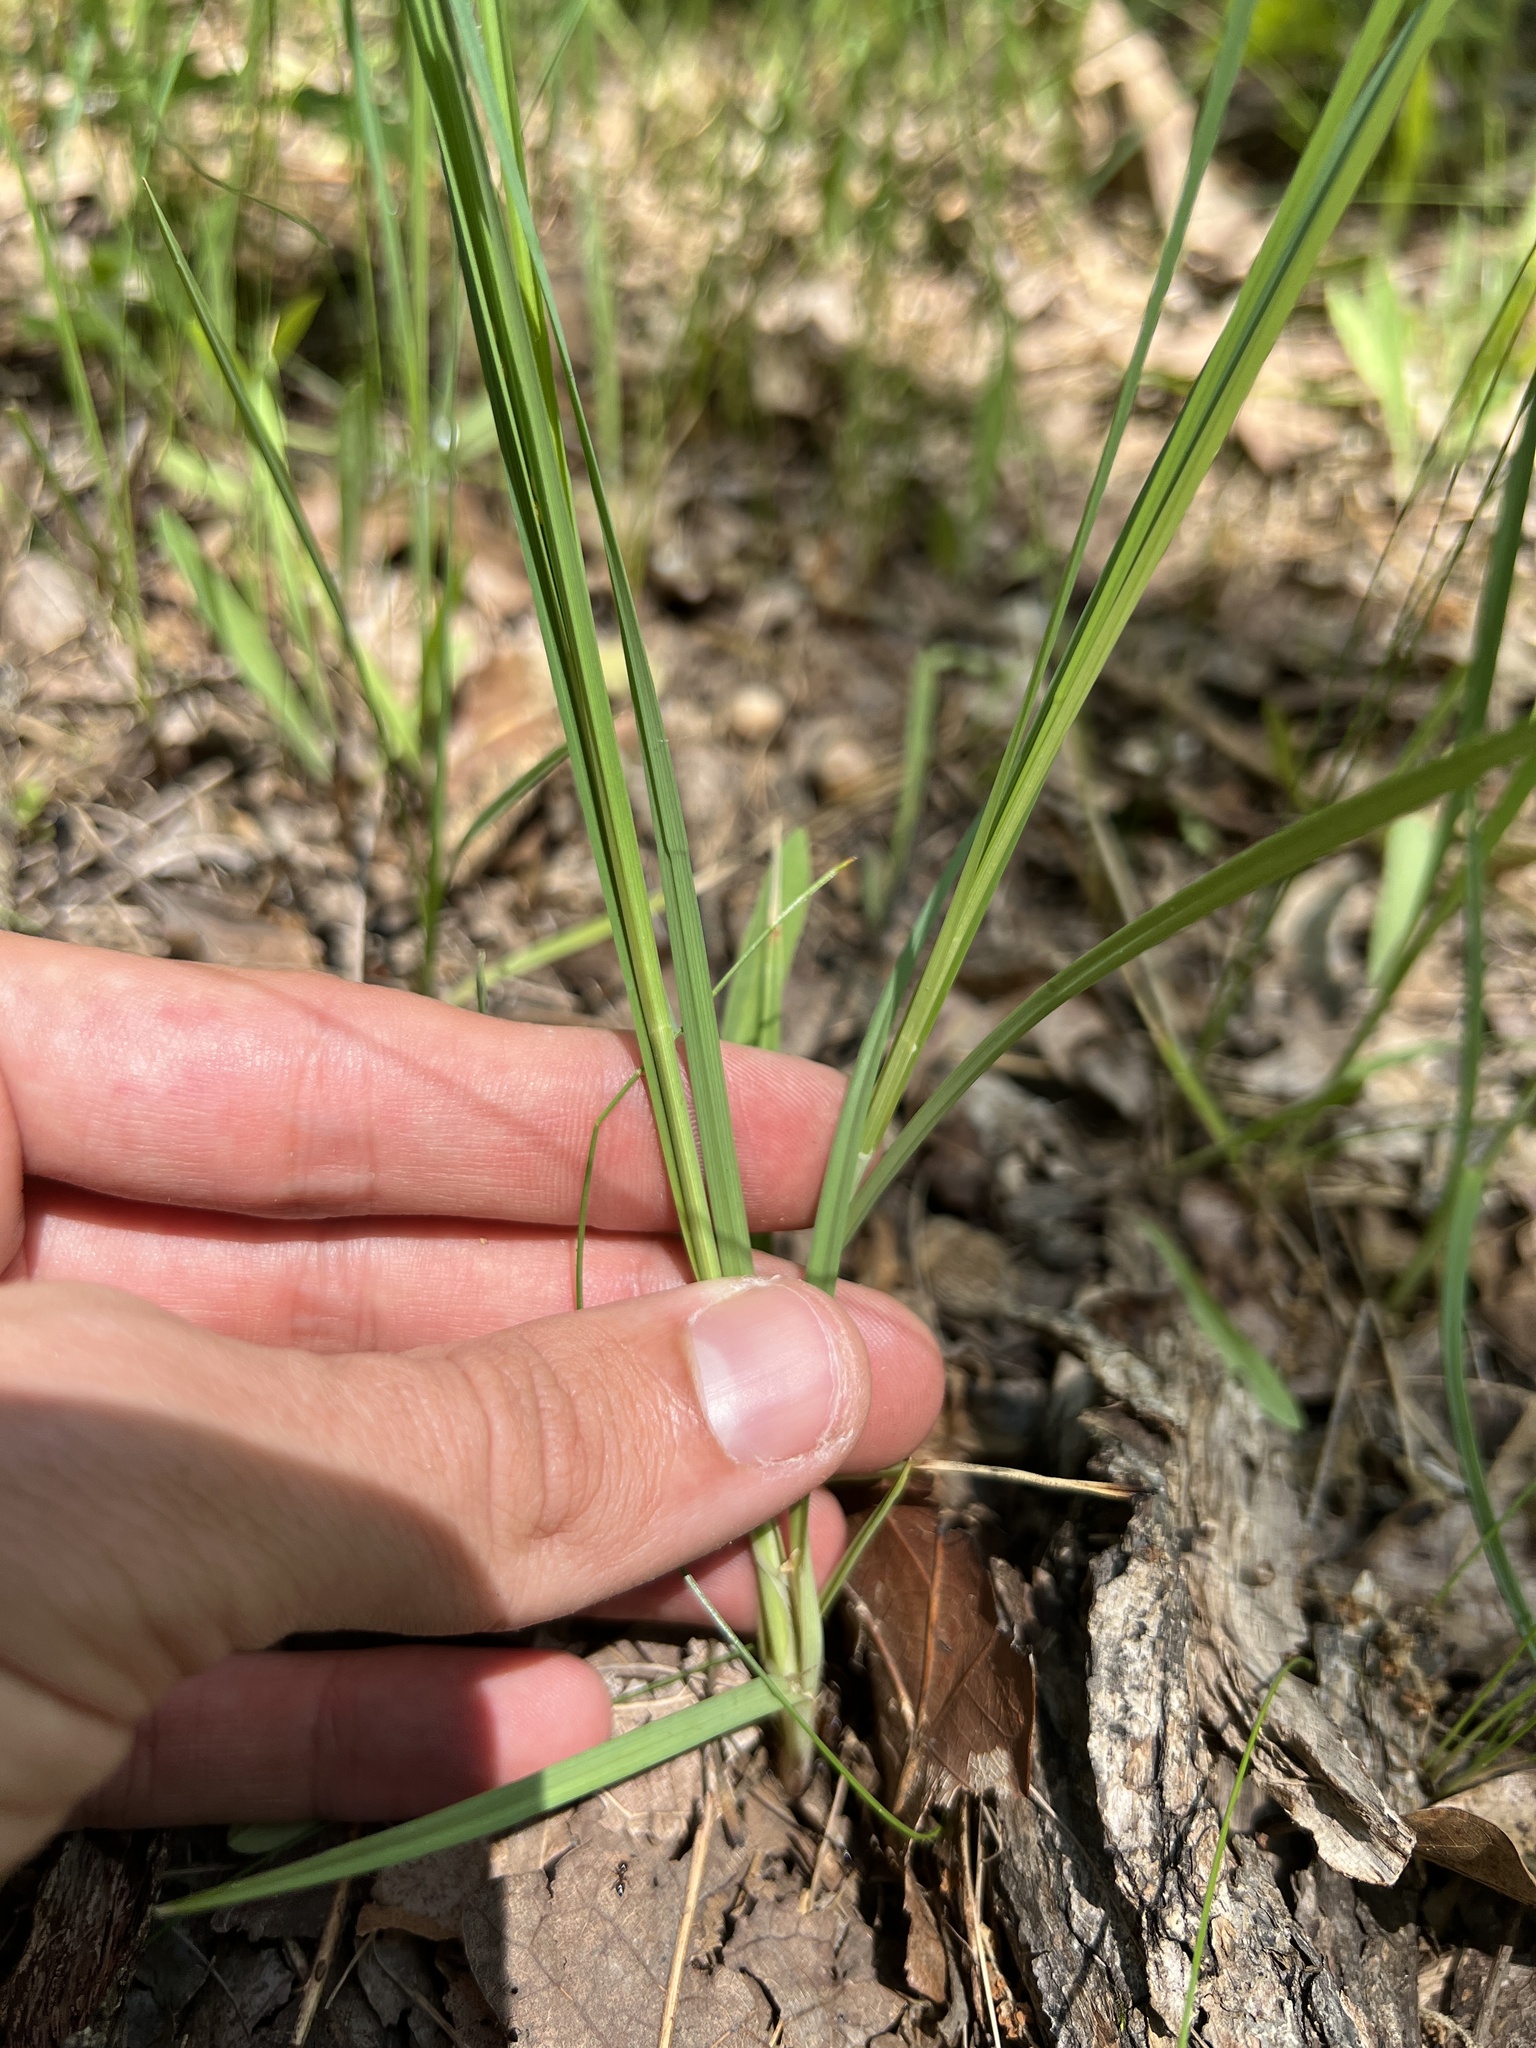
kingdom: Plantae
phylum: Tracheophyta
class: Liliopsida
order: Poales
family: Cyperaceae
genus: Carex
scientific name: Carex meadii
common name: Mead's sedge
